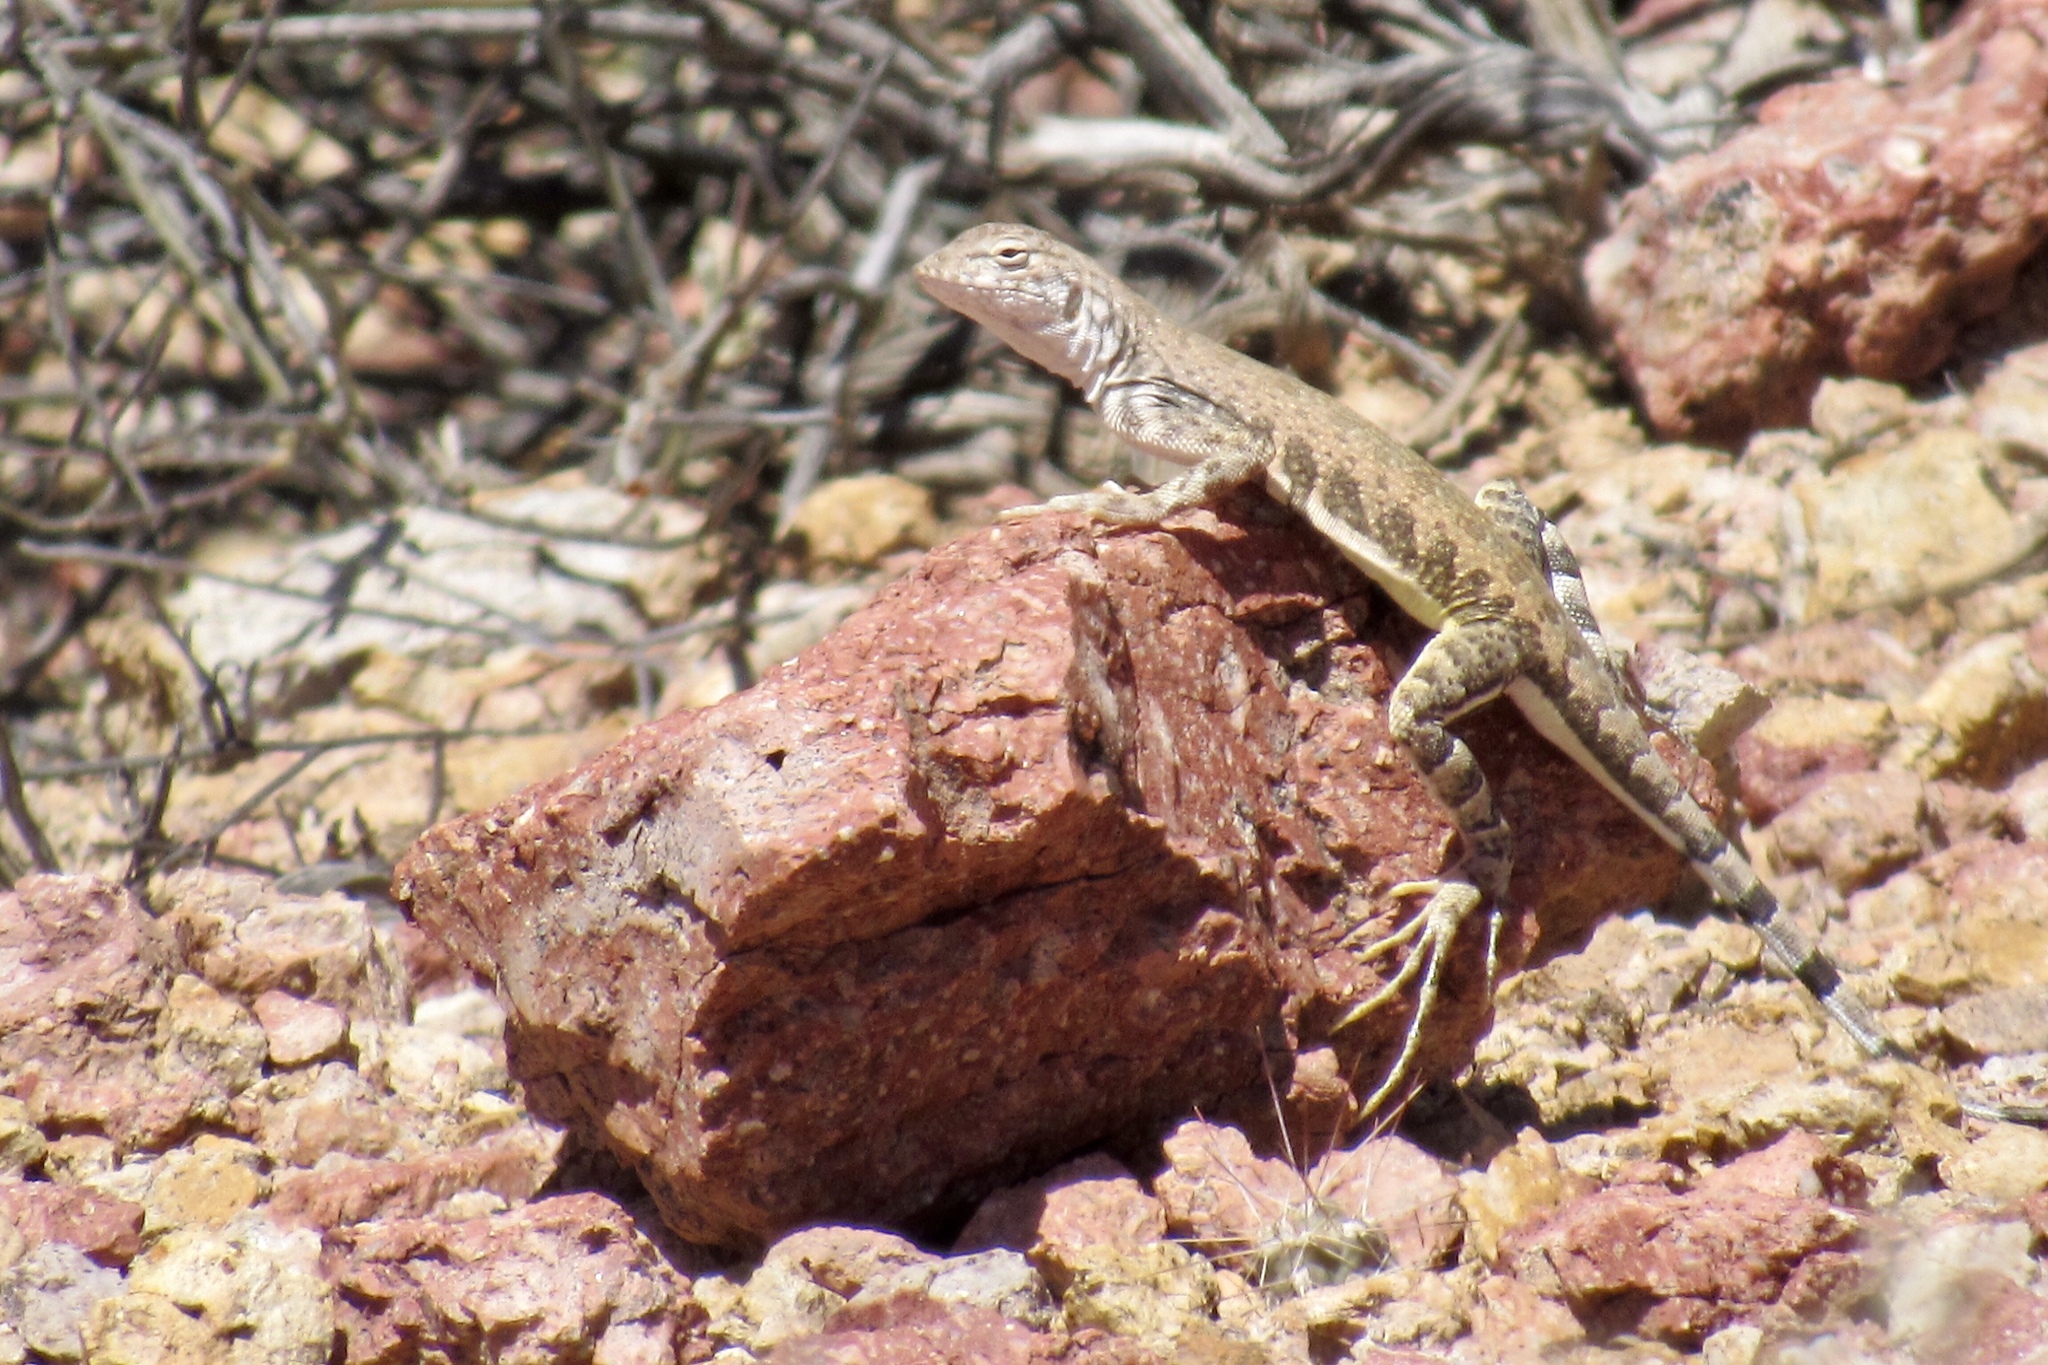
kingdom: Animalia
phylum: Chordata
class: Squamata
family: Phrynosomatidae
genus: Callisaurus
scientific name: Callisaurus draconoides
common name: Zebra-tailed lizard
